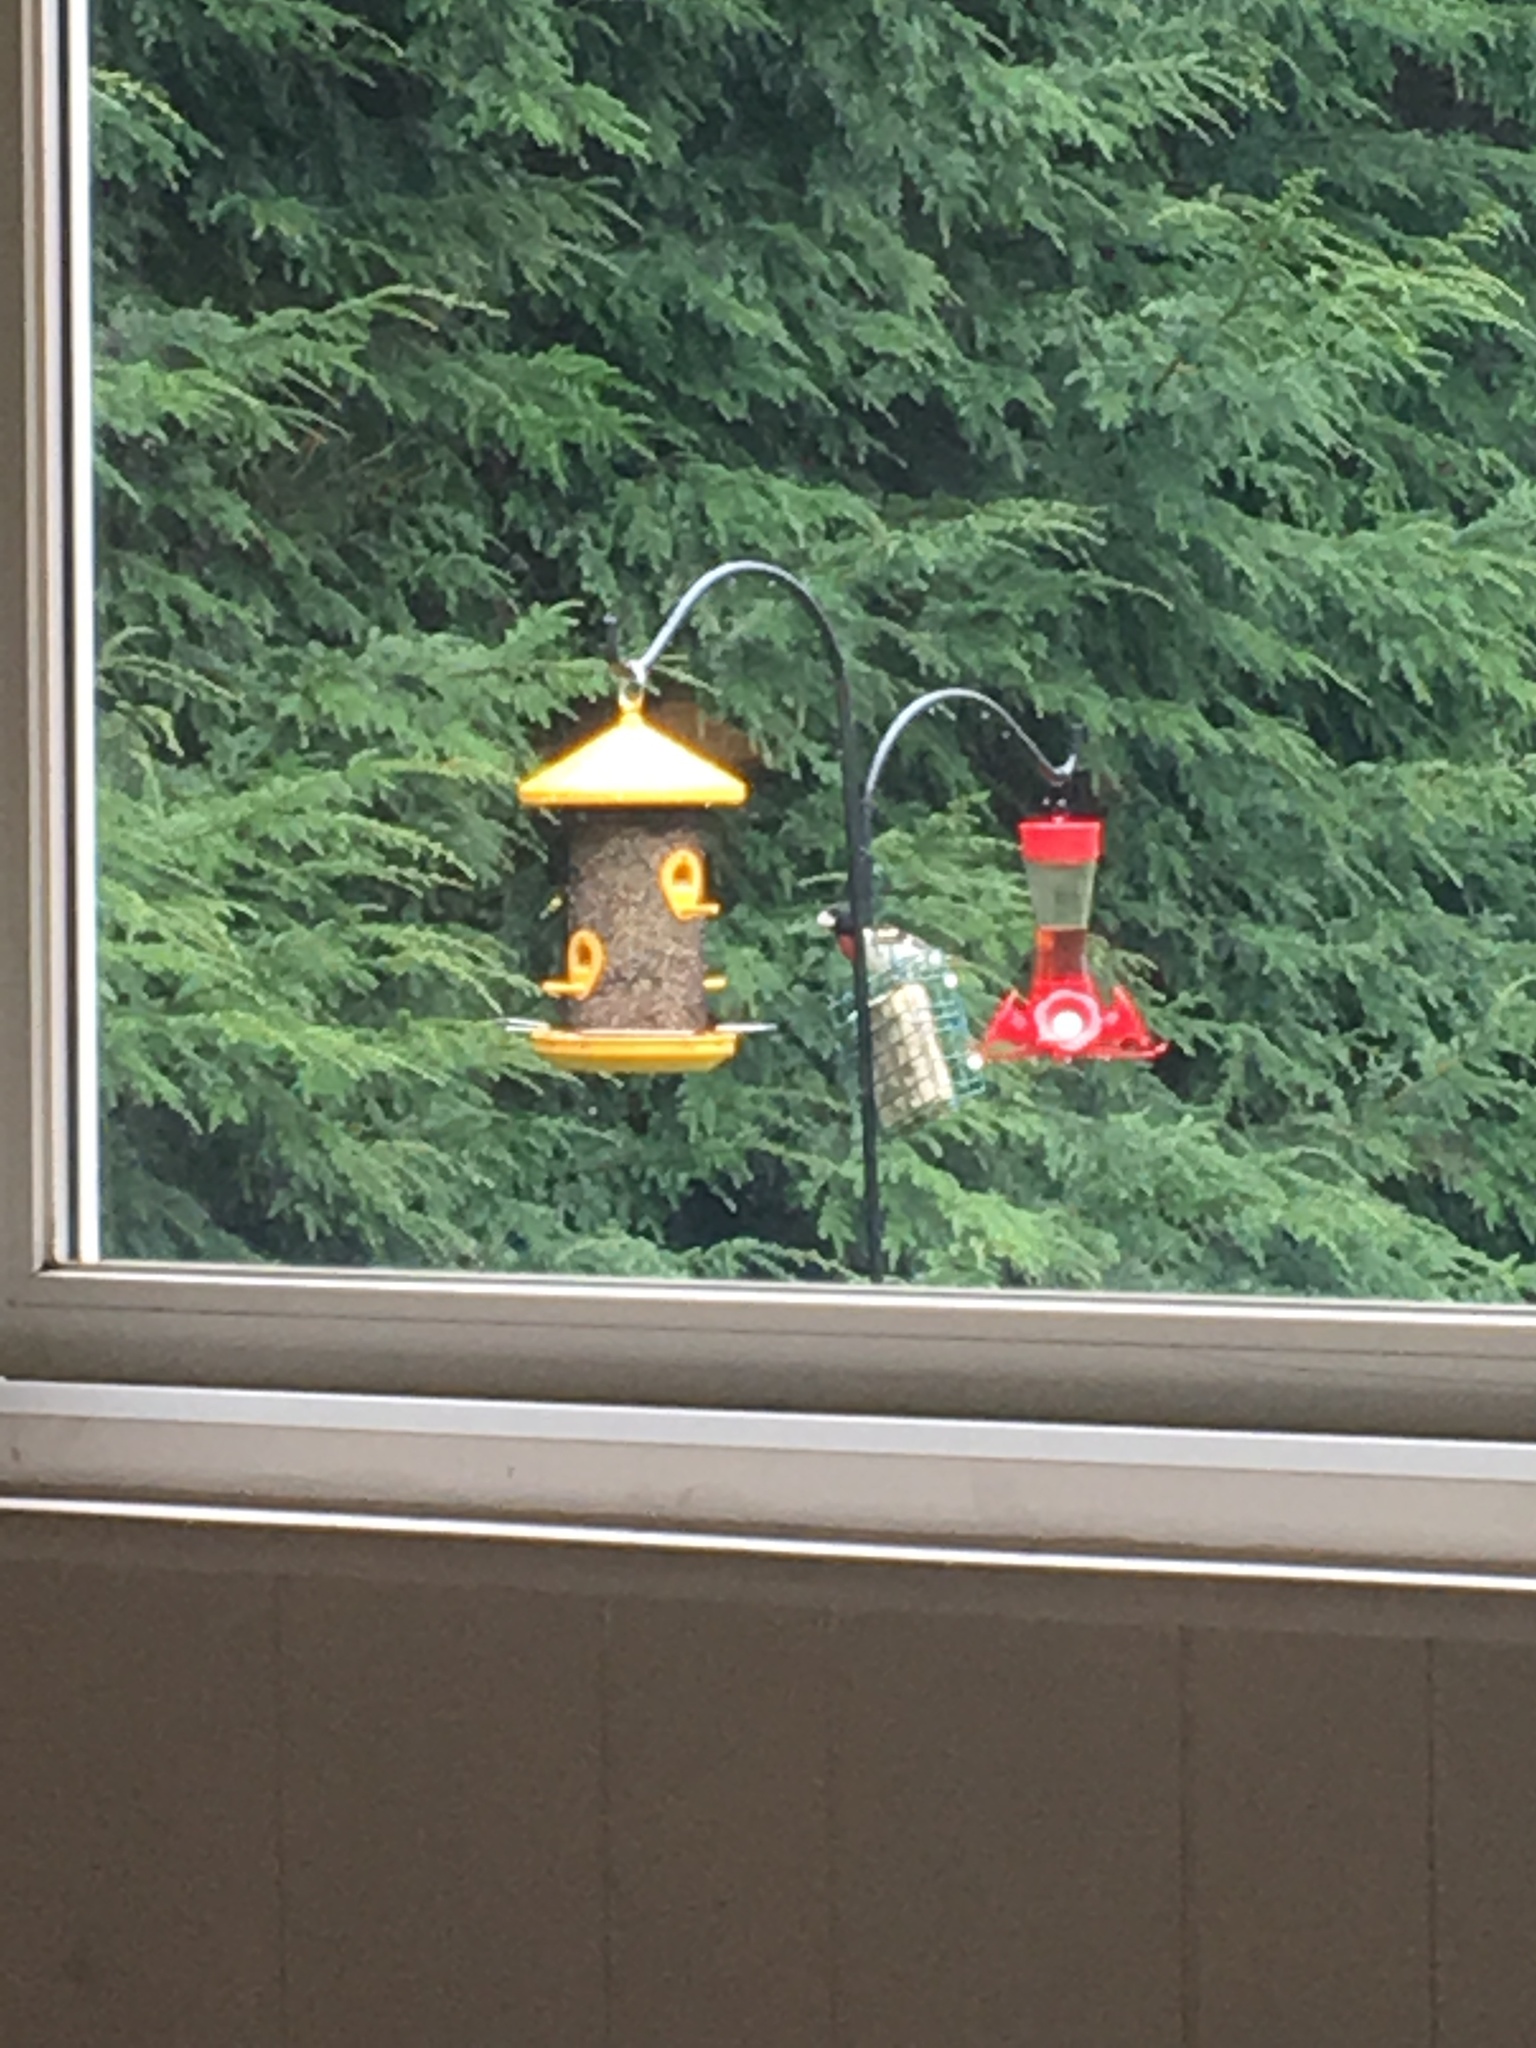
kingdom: Animalia
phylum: Chordata
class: Aves
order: Passeriformes
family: Cardinalidae
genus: Pheucticus
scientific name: Pheucticus ludovicianus
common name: Rose-breasted grosbeak
